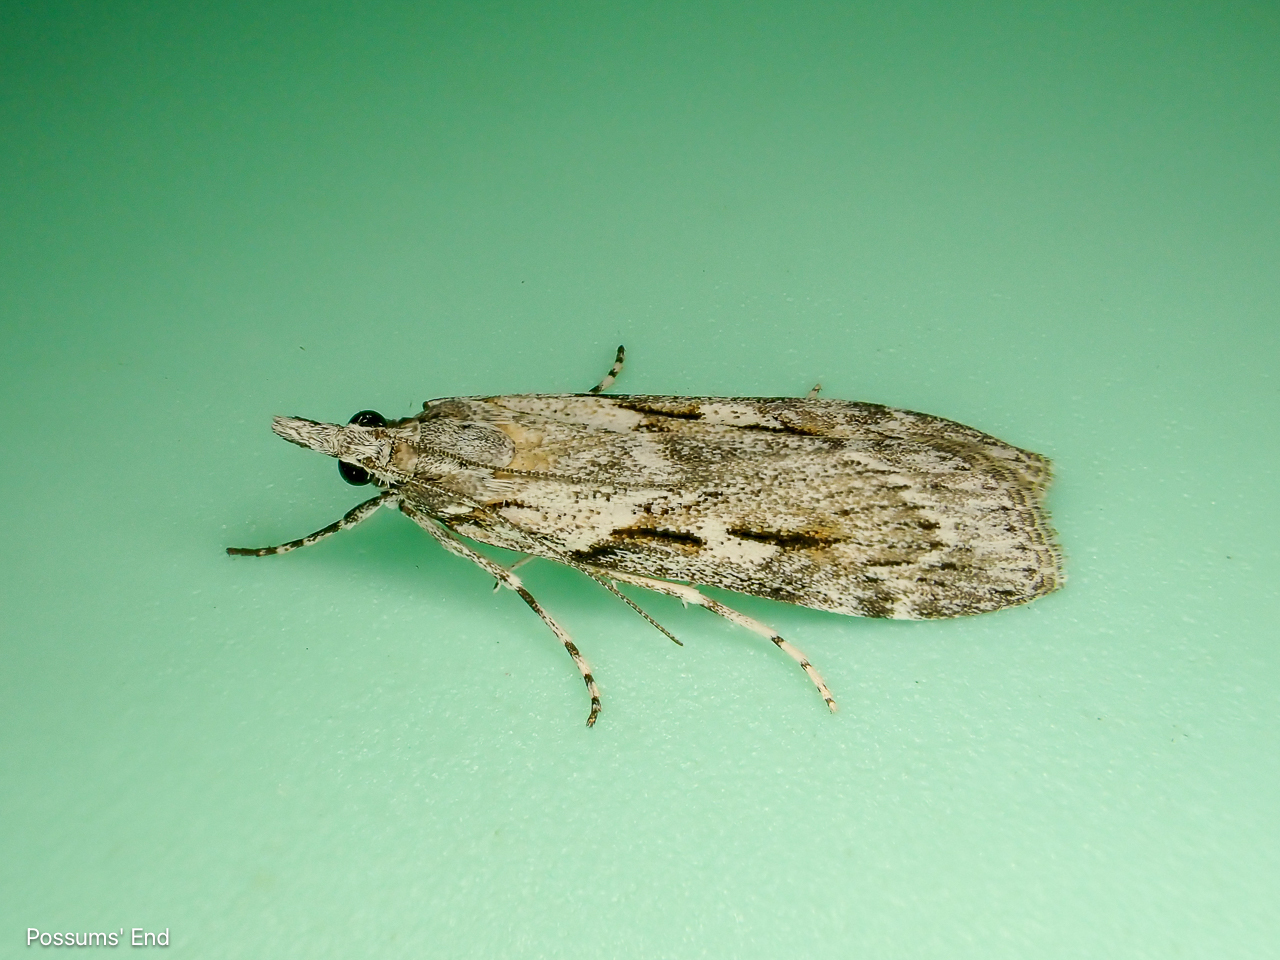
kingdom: Animalia
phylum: Arthropoda
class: Insecta
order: Lepidoptera
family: Crambidae
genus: Scoparia
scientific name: Scoparia halopis
